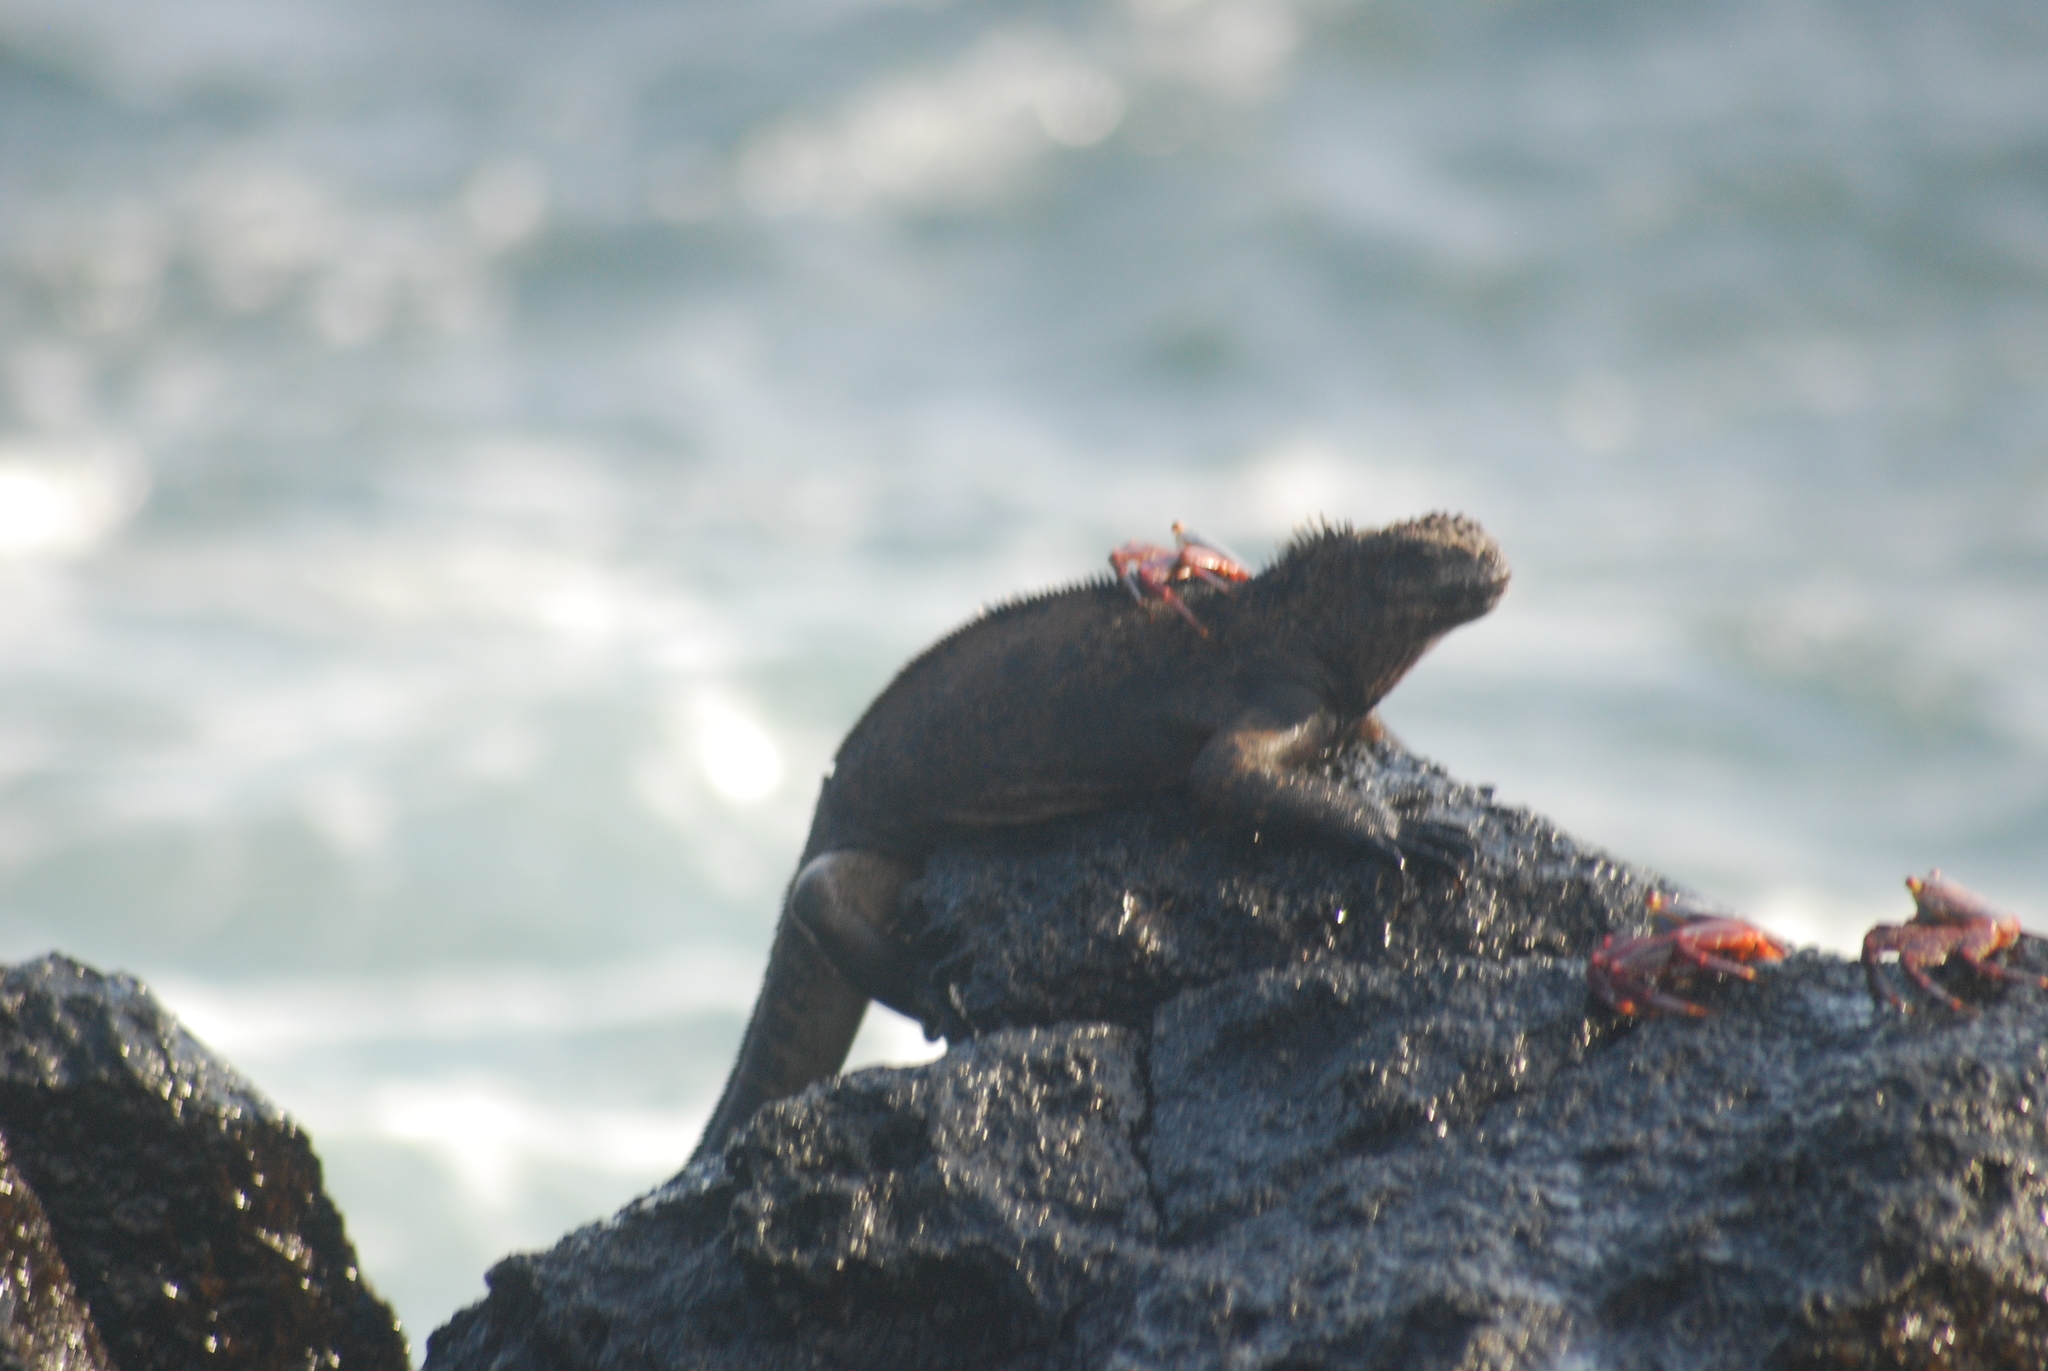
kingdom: Animalia
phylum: Chordata
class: Squamata
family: Iguanidae
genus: Amblyrhynchus
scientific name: Amblyrhynchus cristatus
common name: Marine iguana
